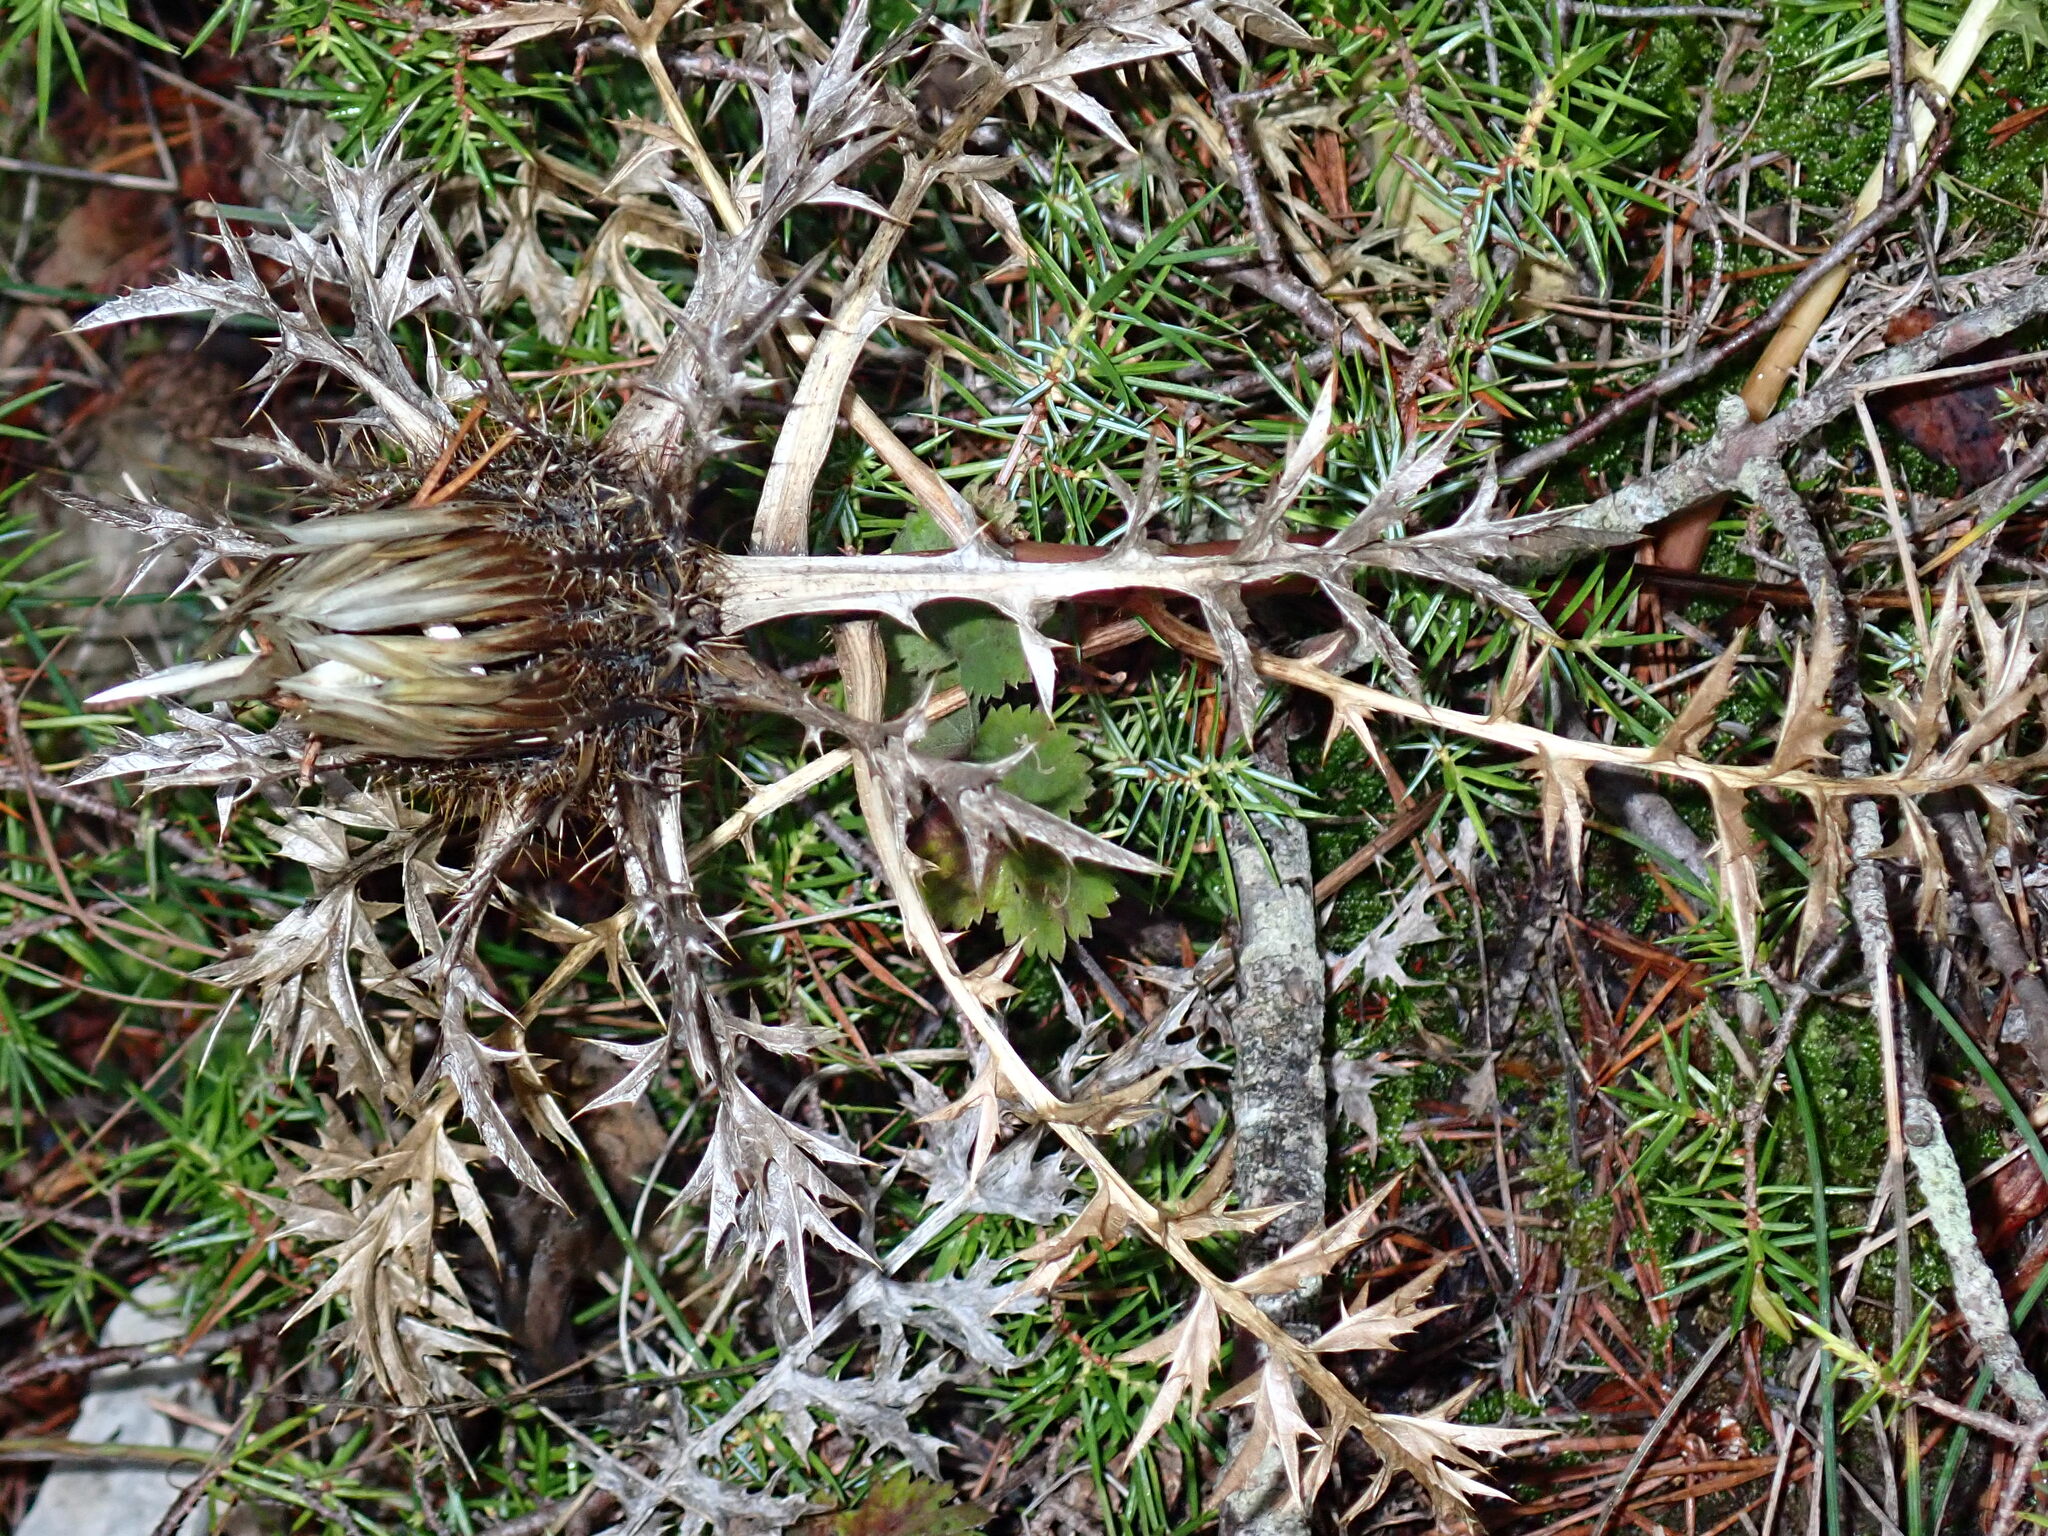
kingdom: Plantae
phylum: Tracheophyta
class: Magnoliopsida
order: Asterales
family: Asteraceae
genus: Carlina
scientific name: Carlina acaulis
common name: Stemless carline thistle
